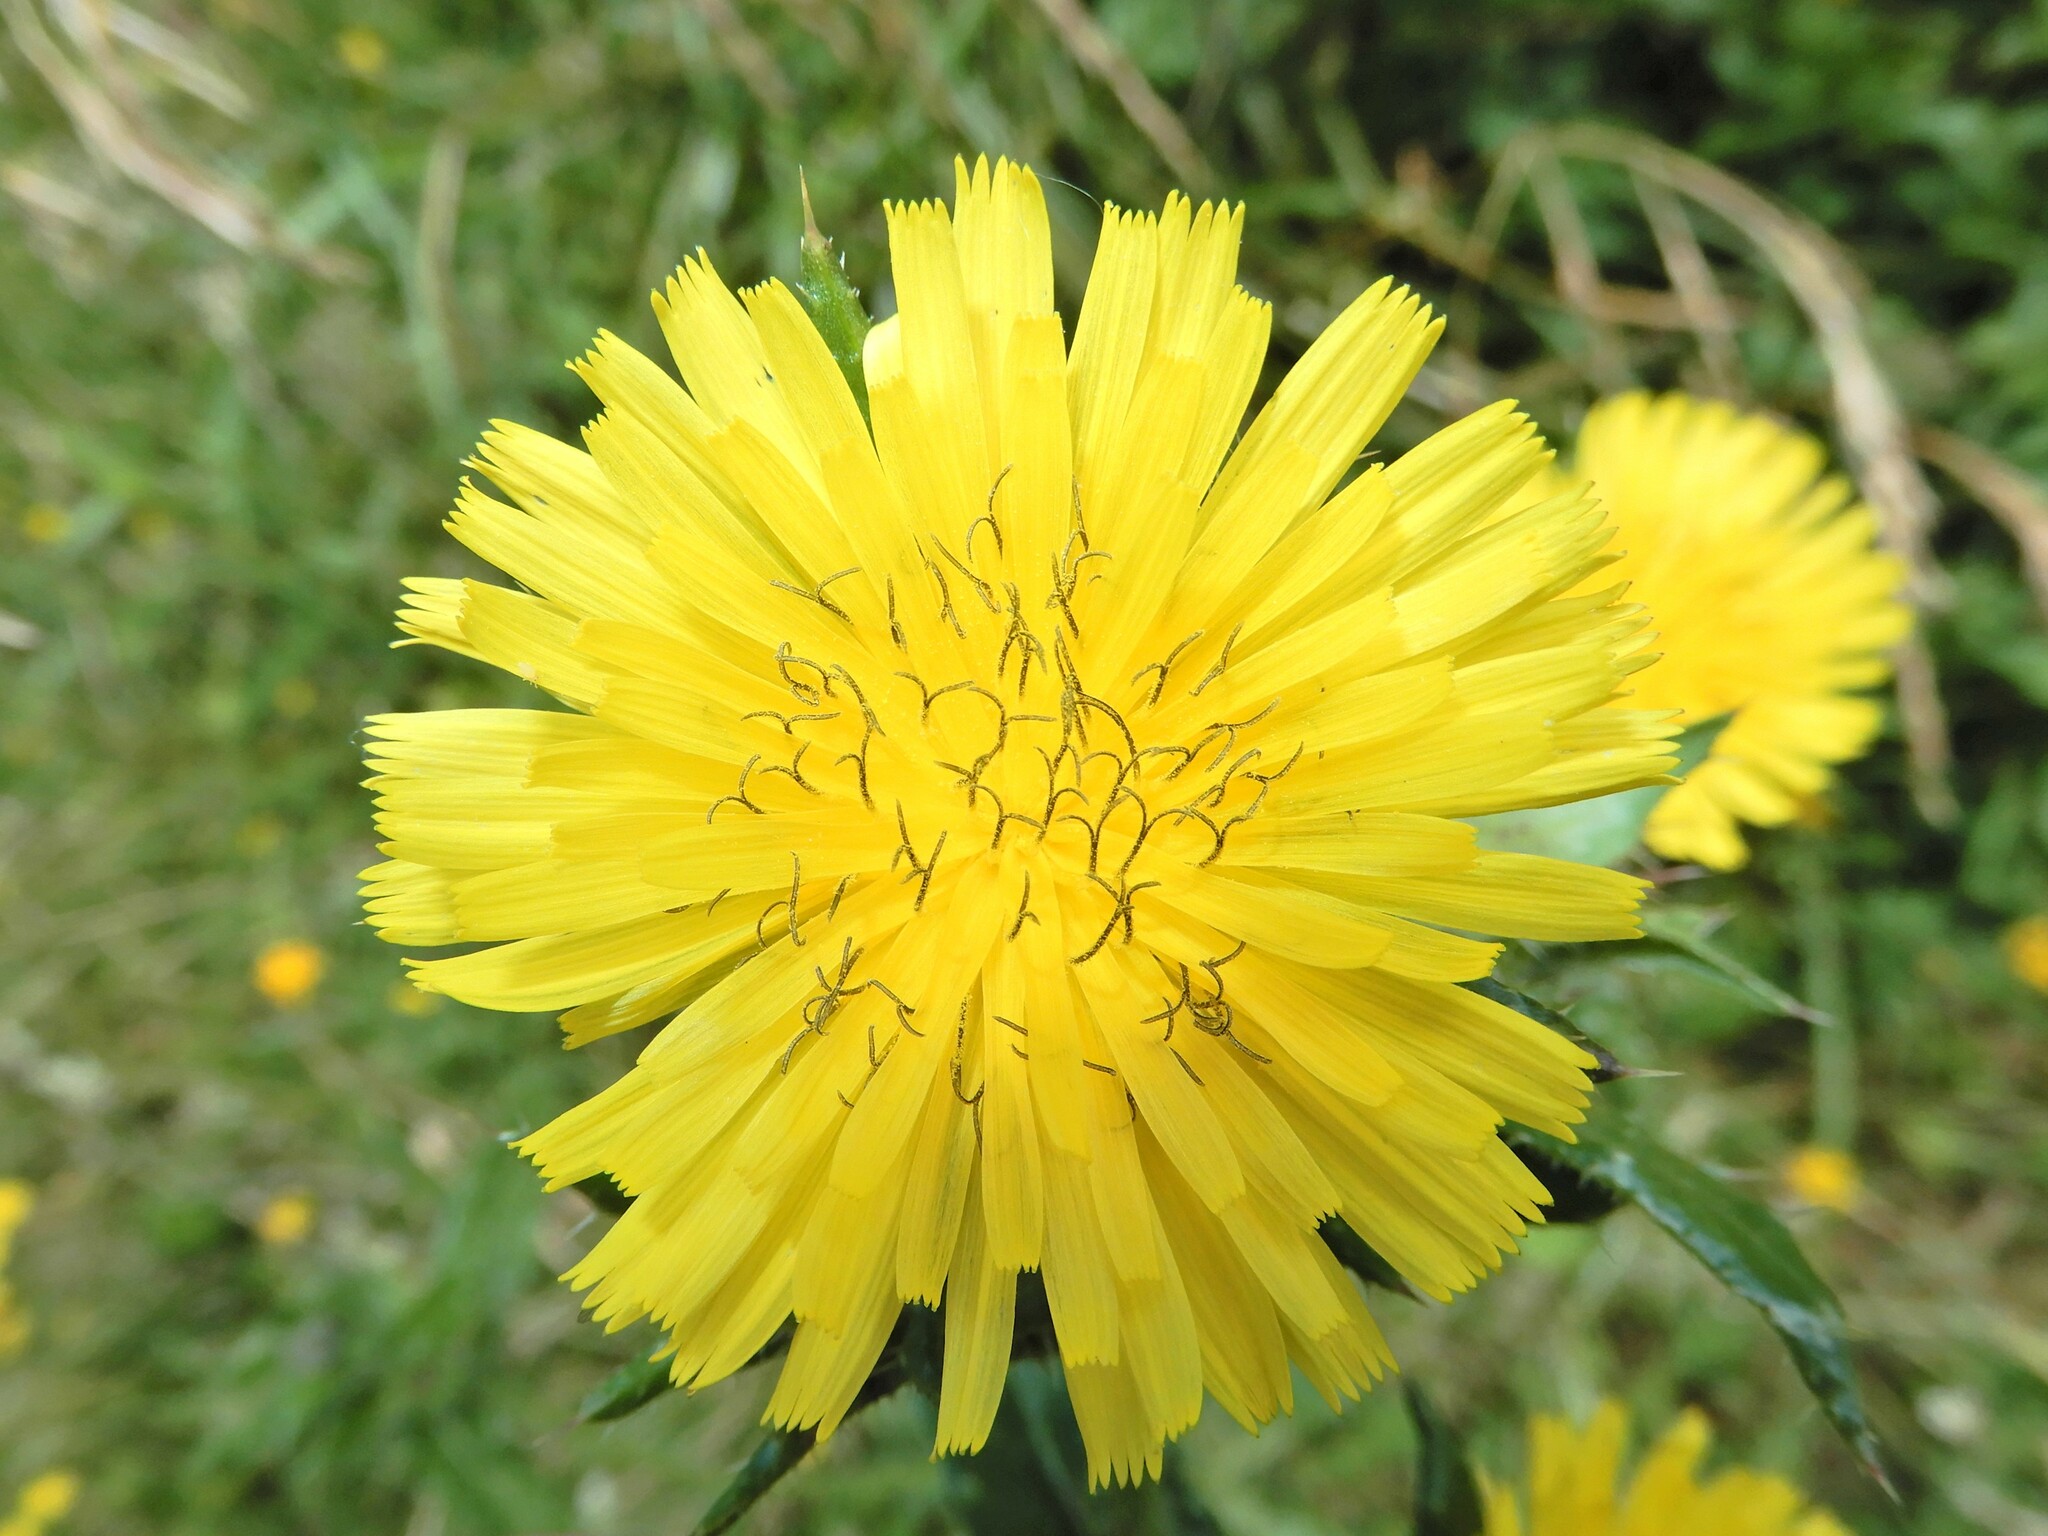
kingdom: Plantae
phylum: Tracheophyta
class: Magnoliopsida
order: Asterales
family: Asteraceae
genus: Helminthotheca
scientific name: Helminthotheca echioides
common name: Ox-tongue
